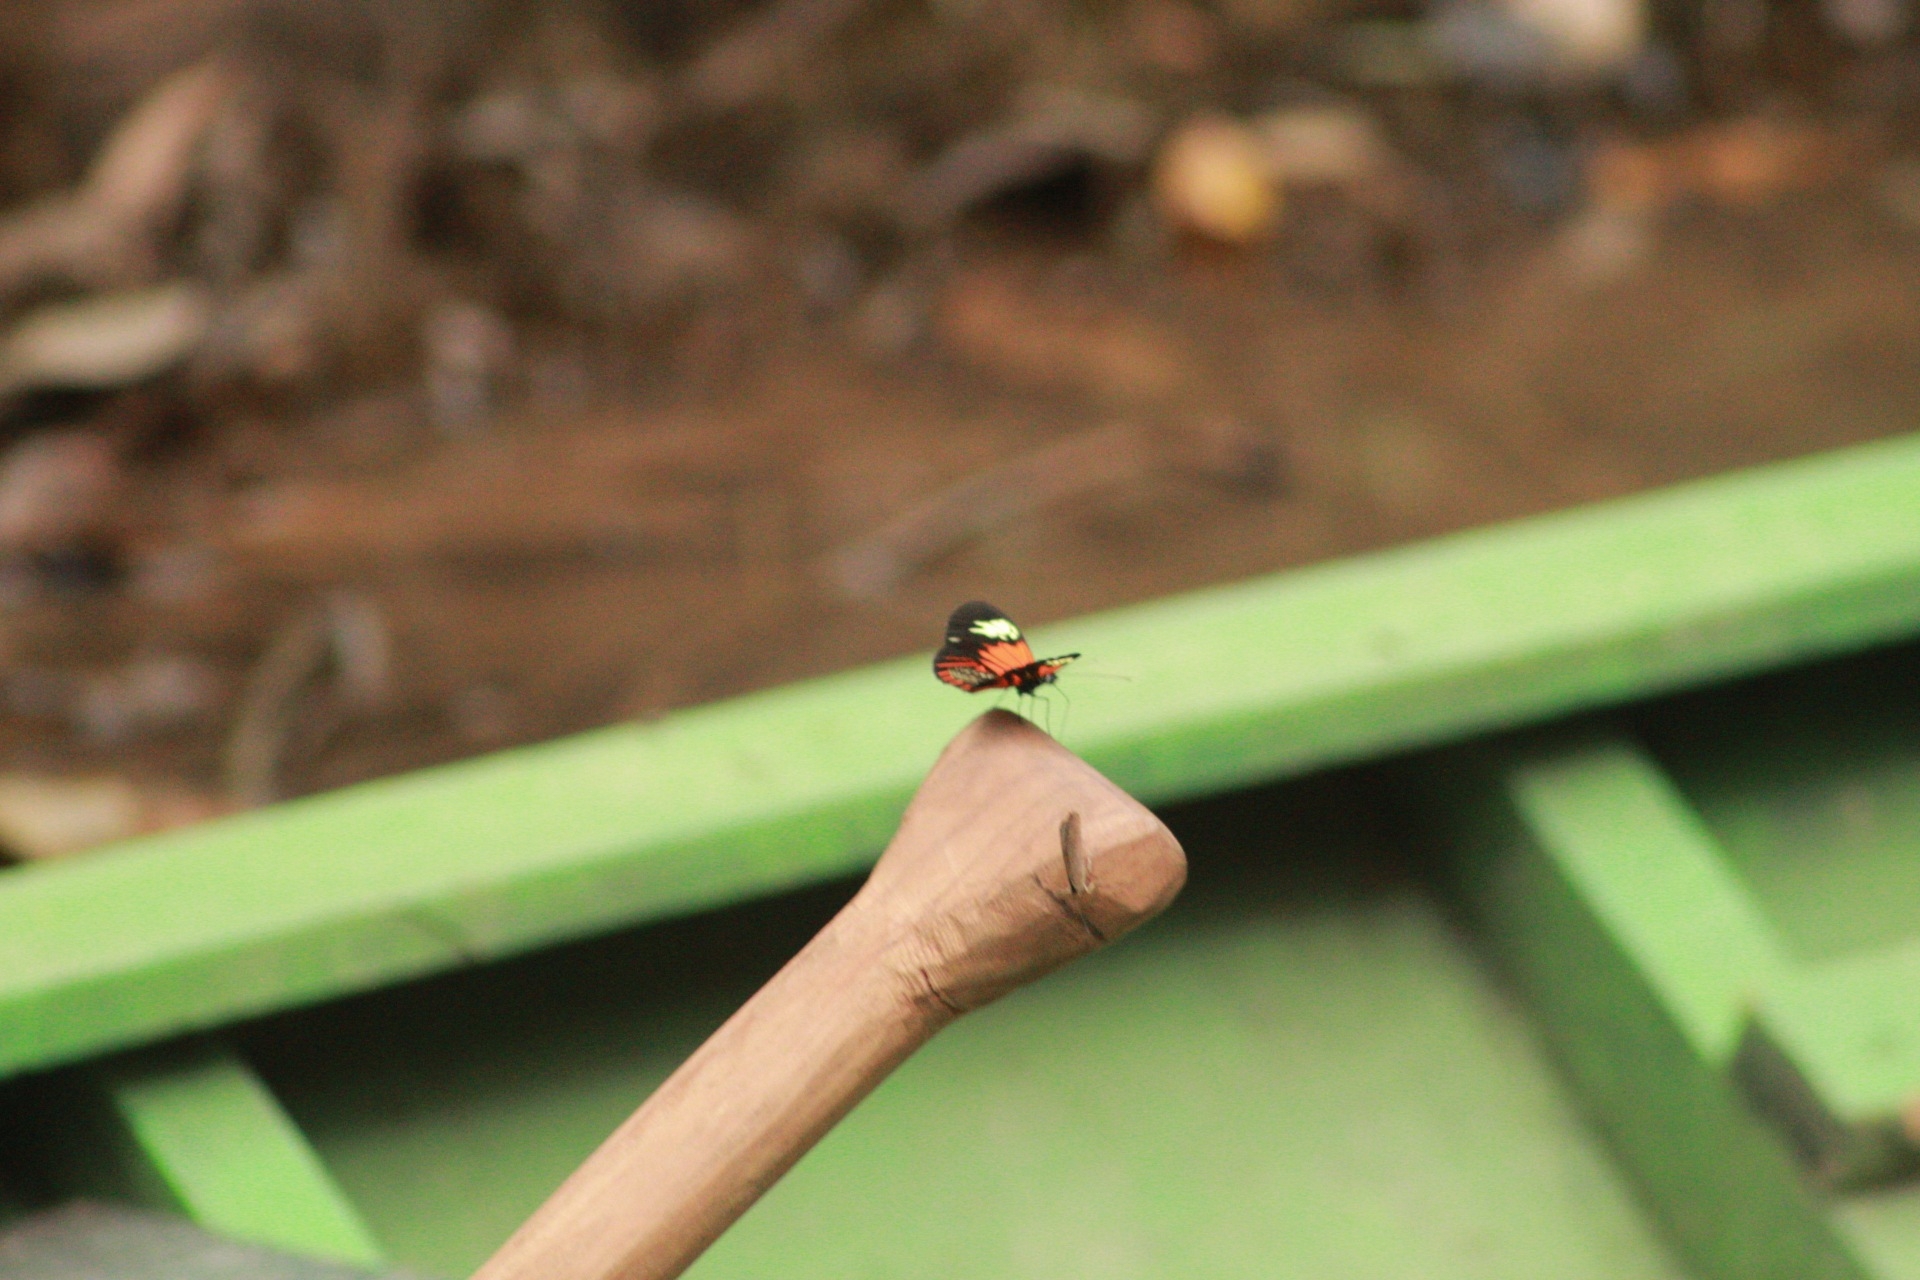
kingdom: Animalia
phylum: Arthropoda
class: Insecta
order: Lepidoptera
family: Nymphalidae
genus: Heliconius
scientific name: Heliconius elevatus
